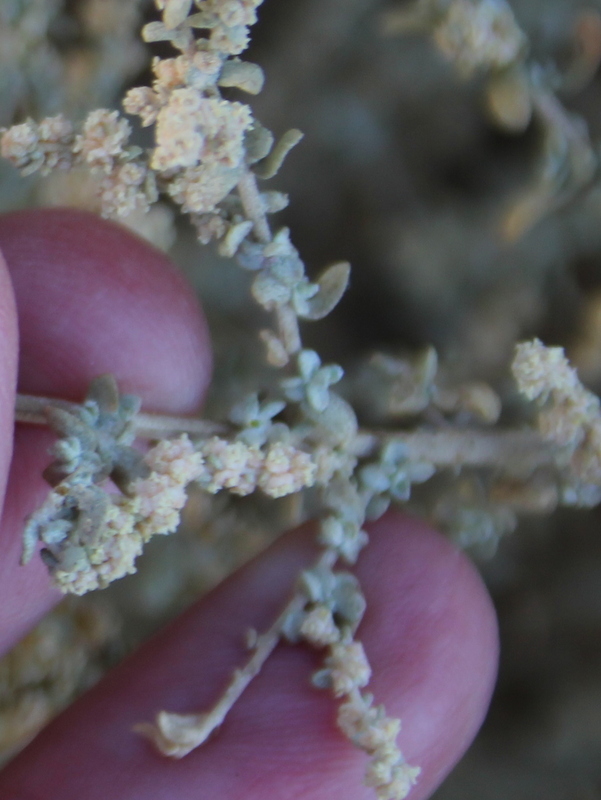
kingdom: Plantae
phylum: Tracheophyta
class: Magnoliopsida
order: Caryophyllales
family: Amaranthaceae
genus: Atriplex
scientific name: Atriplex polycarpa
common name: Desert saltbush
